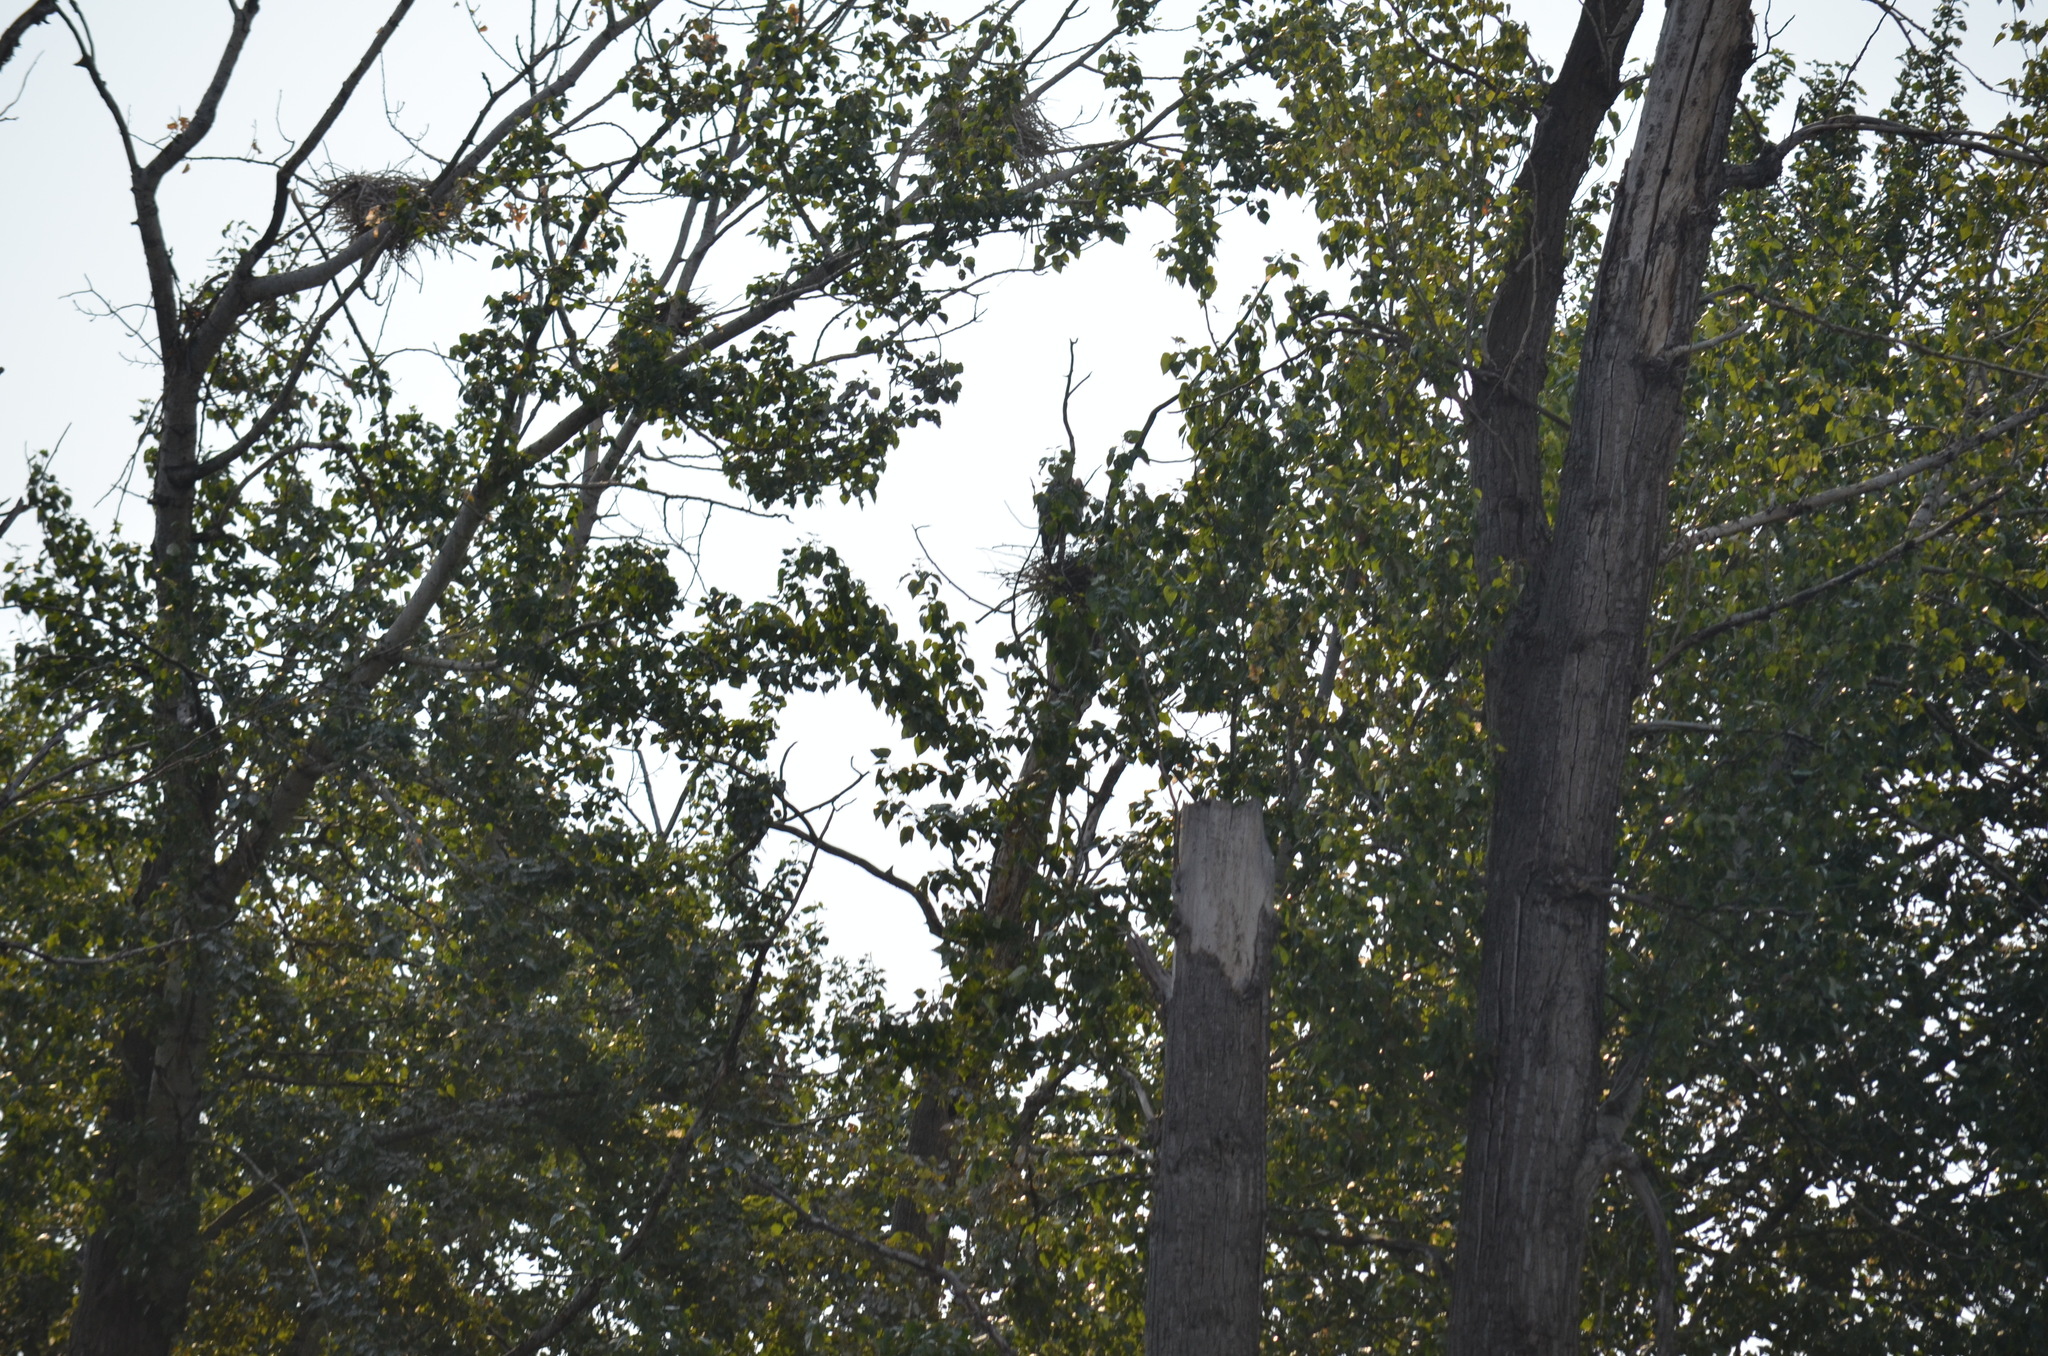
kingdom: Animalia
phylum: Chordata
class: Aves
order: Pelecaniformes
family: Ardeidae
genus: Ardea
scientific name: Ardea herodias
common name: Great blue heron
